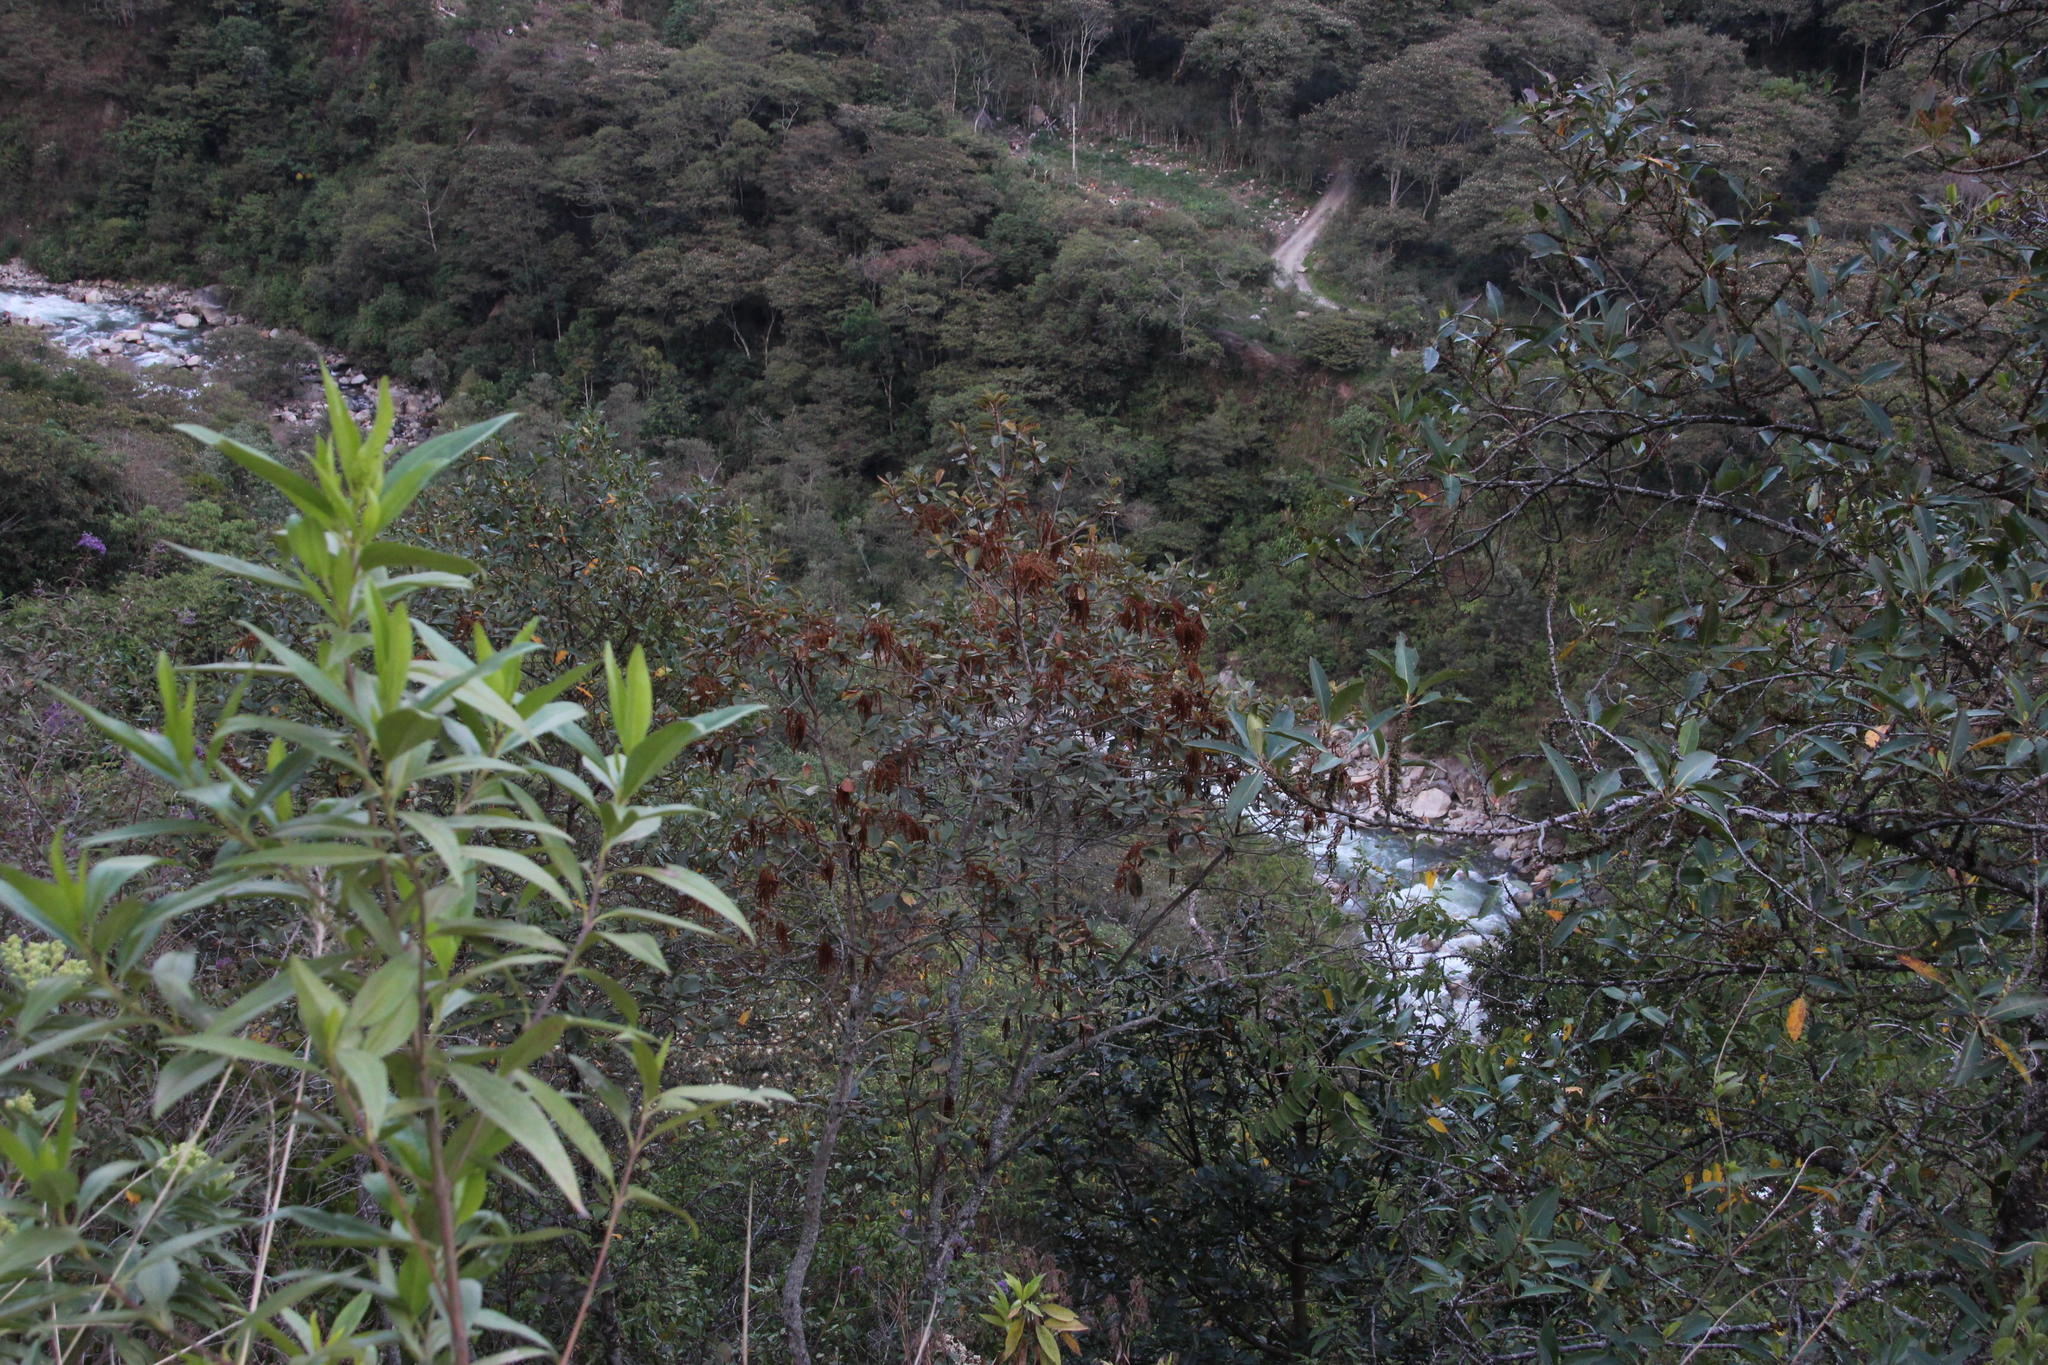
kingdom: Plantae
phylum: Tracheophyta
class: Magnoliopsida
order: Fagales
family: Betulaceae
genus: Alnus
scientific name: Alnus acuminata
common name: Alder
